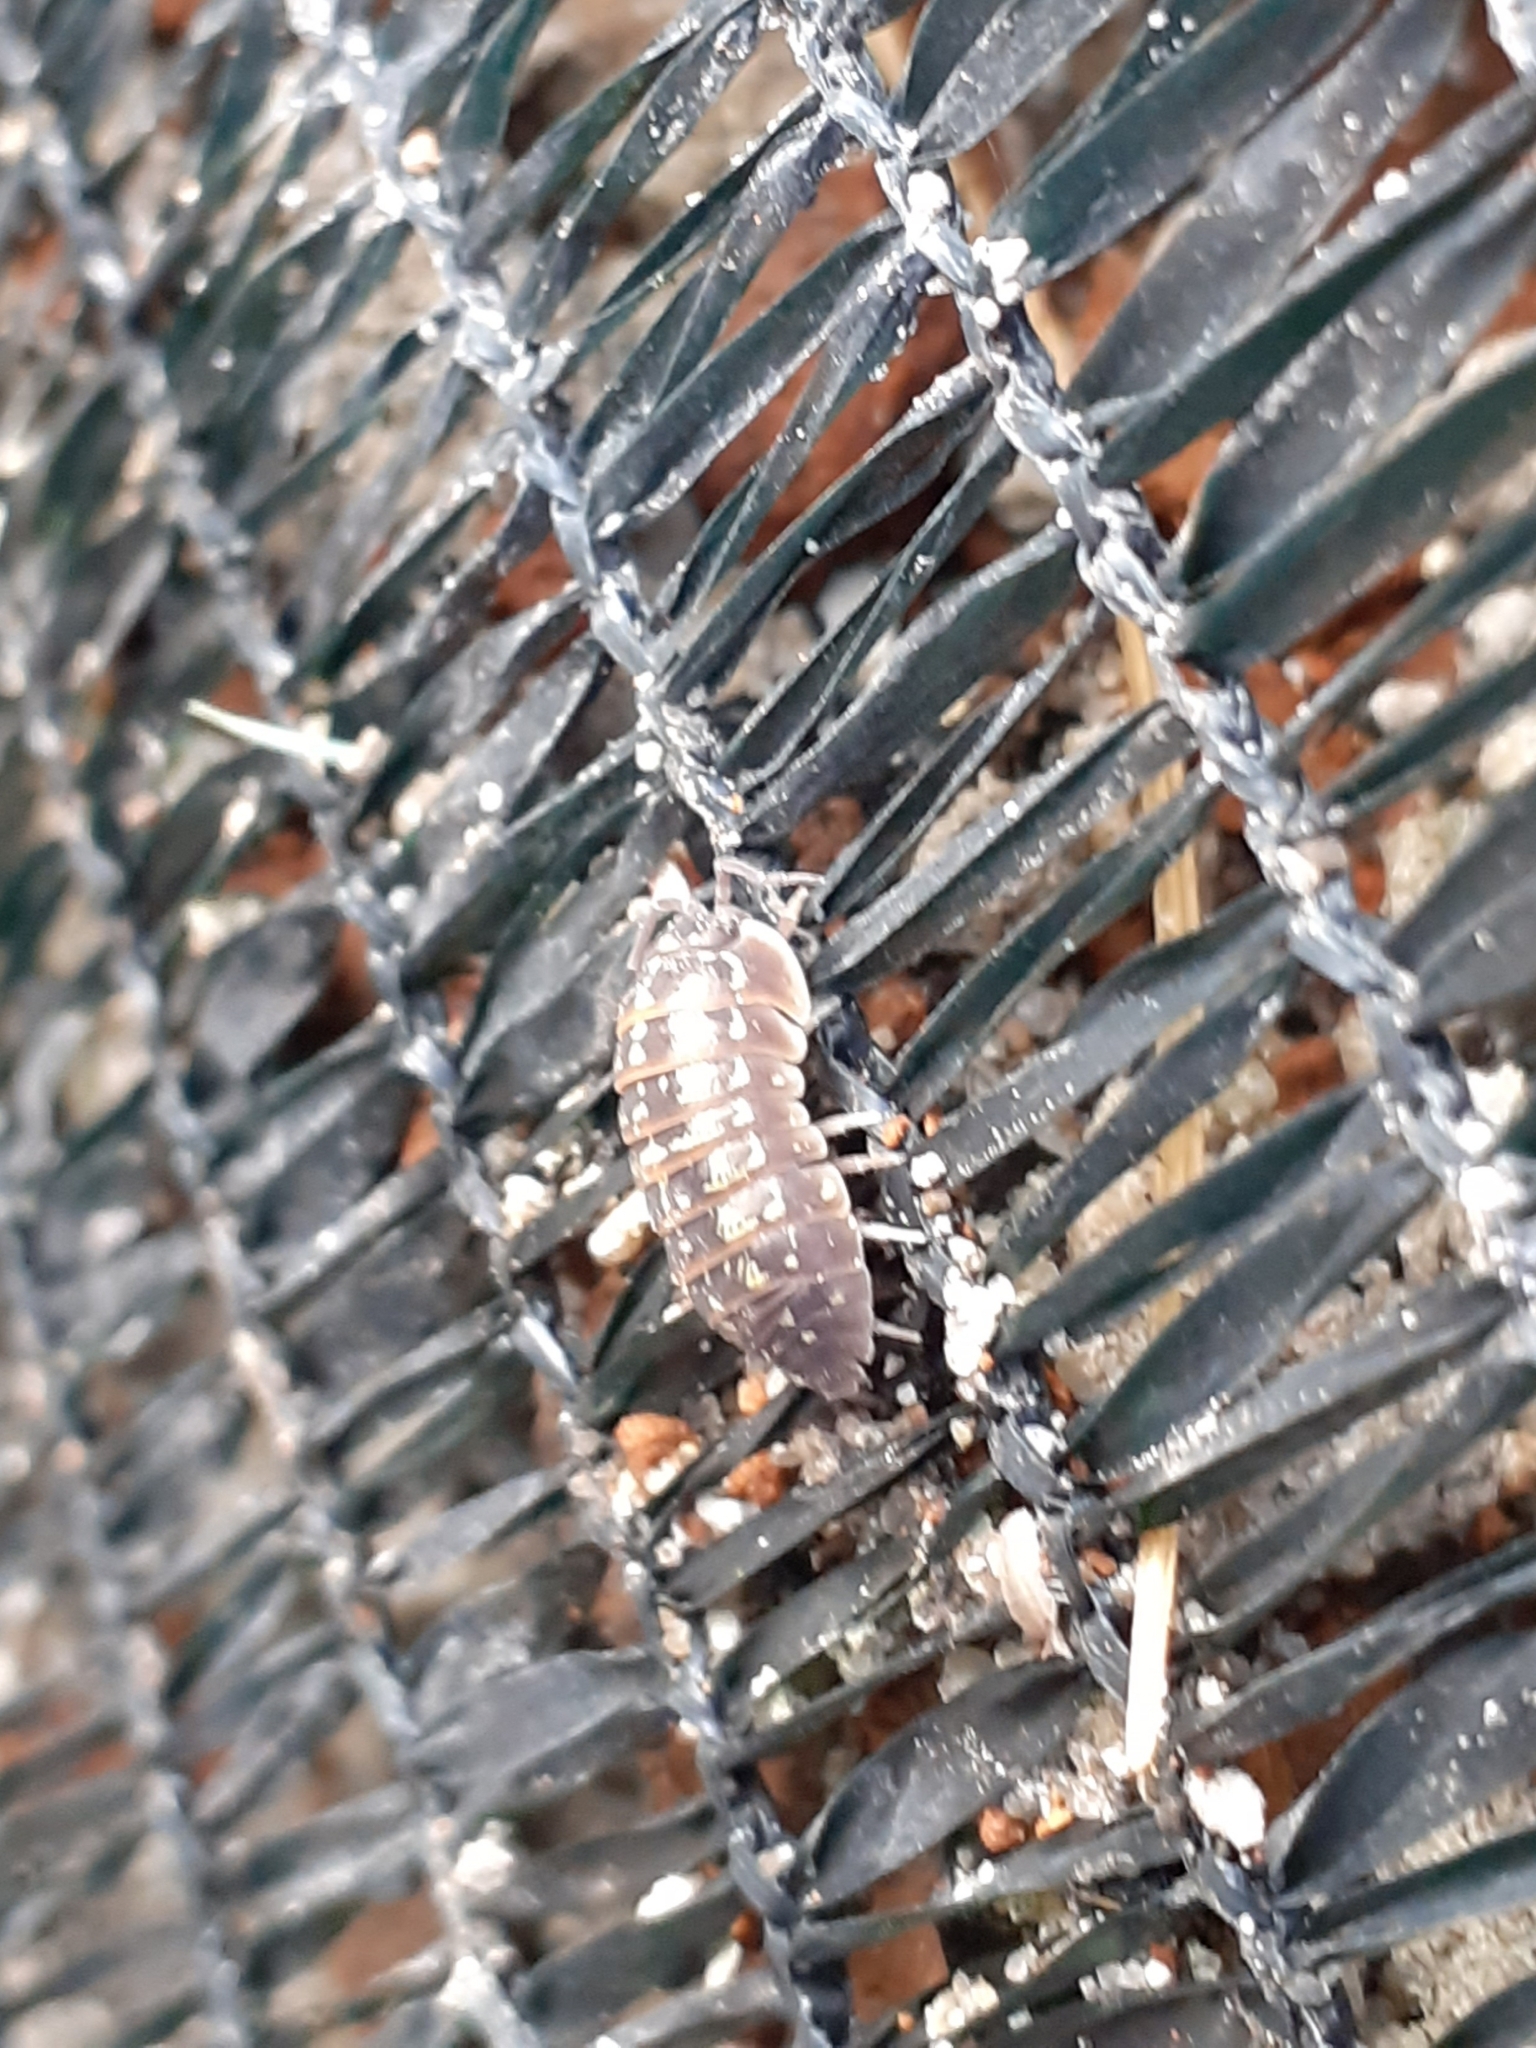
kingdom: Animalia
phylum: Arthropoda
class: Malacostraca
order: Isopoda
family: Armadillidiidae
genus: Armadillidium
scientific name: Armadillidium versicolor
